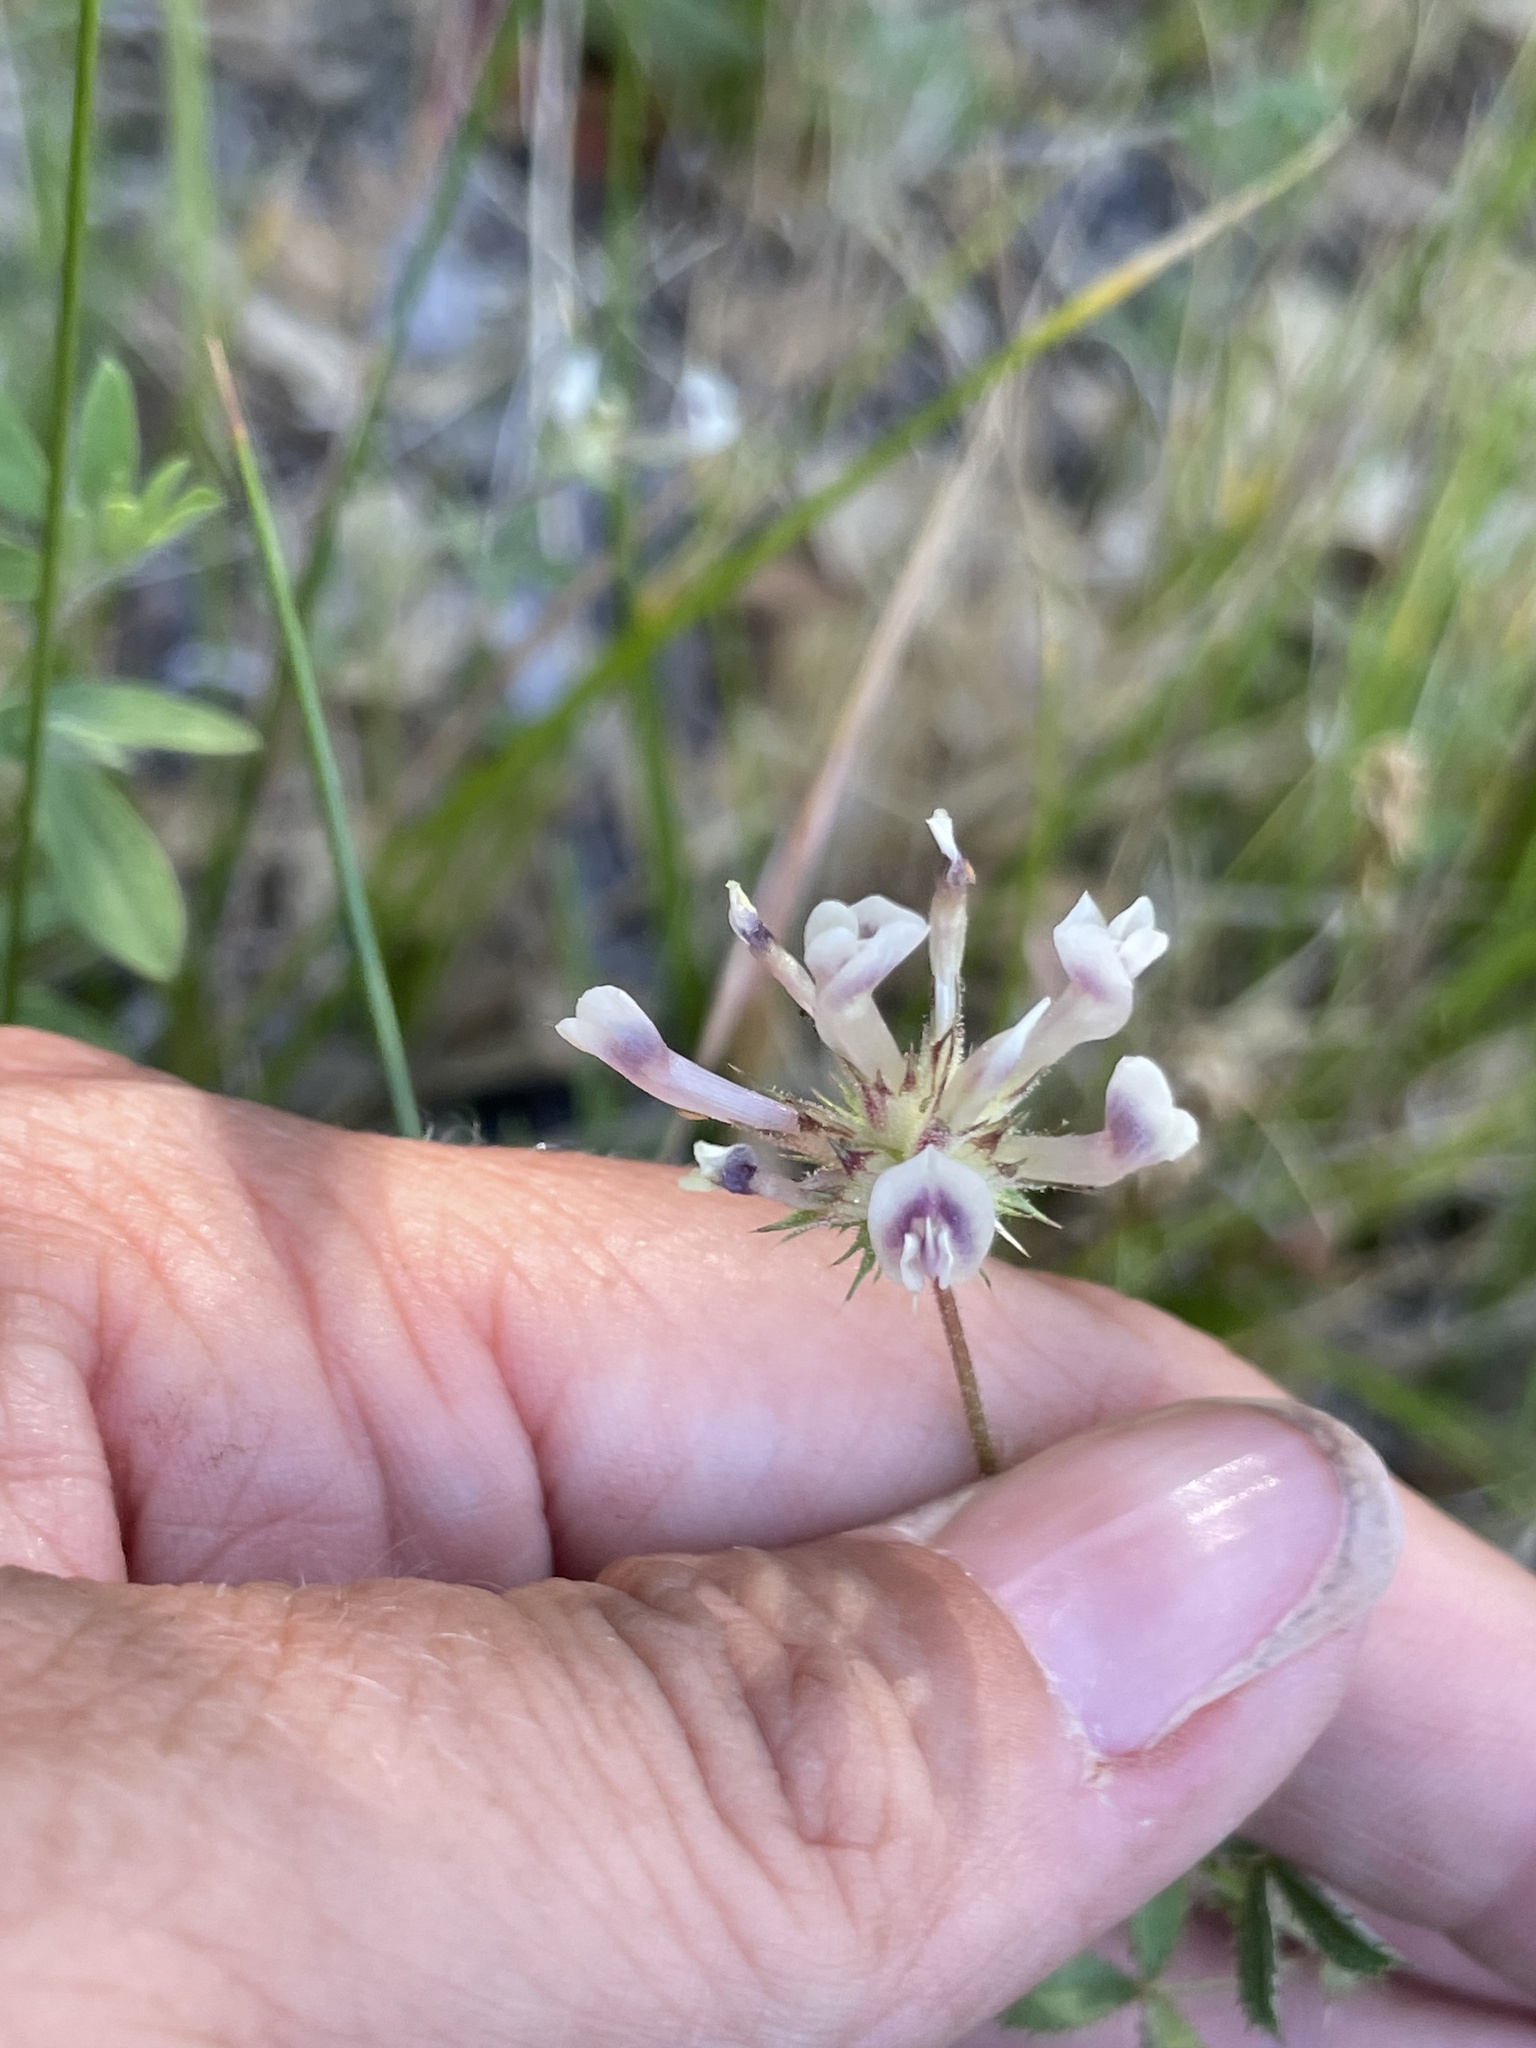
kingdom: Plantae
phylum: Tracheophyta
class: Magnoliopsida
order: Fabales
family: Fabaceae
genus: Trifolium
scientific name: Trifolium obtusiflorum
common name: Clammy clover
